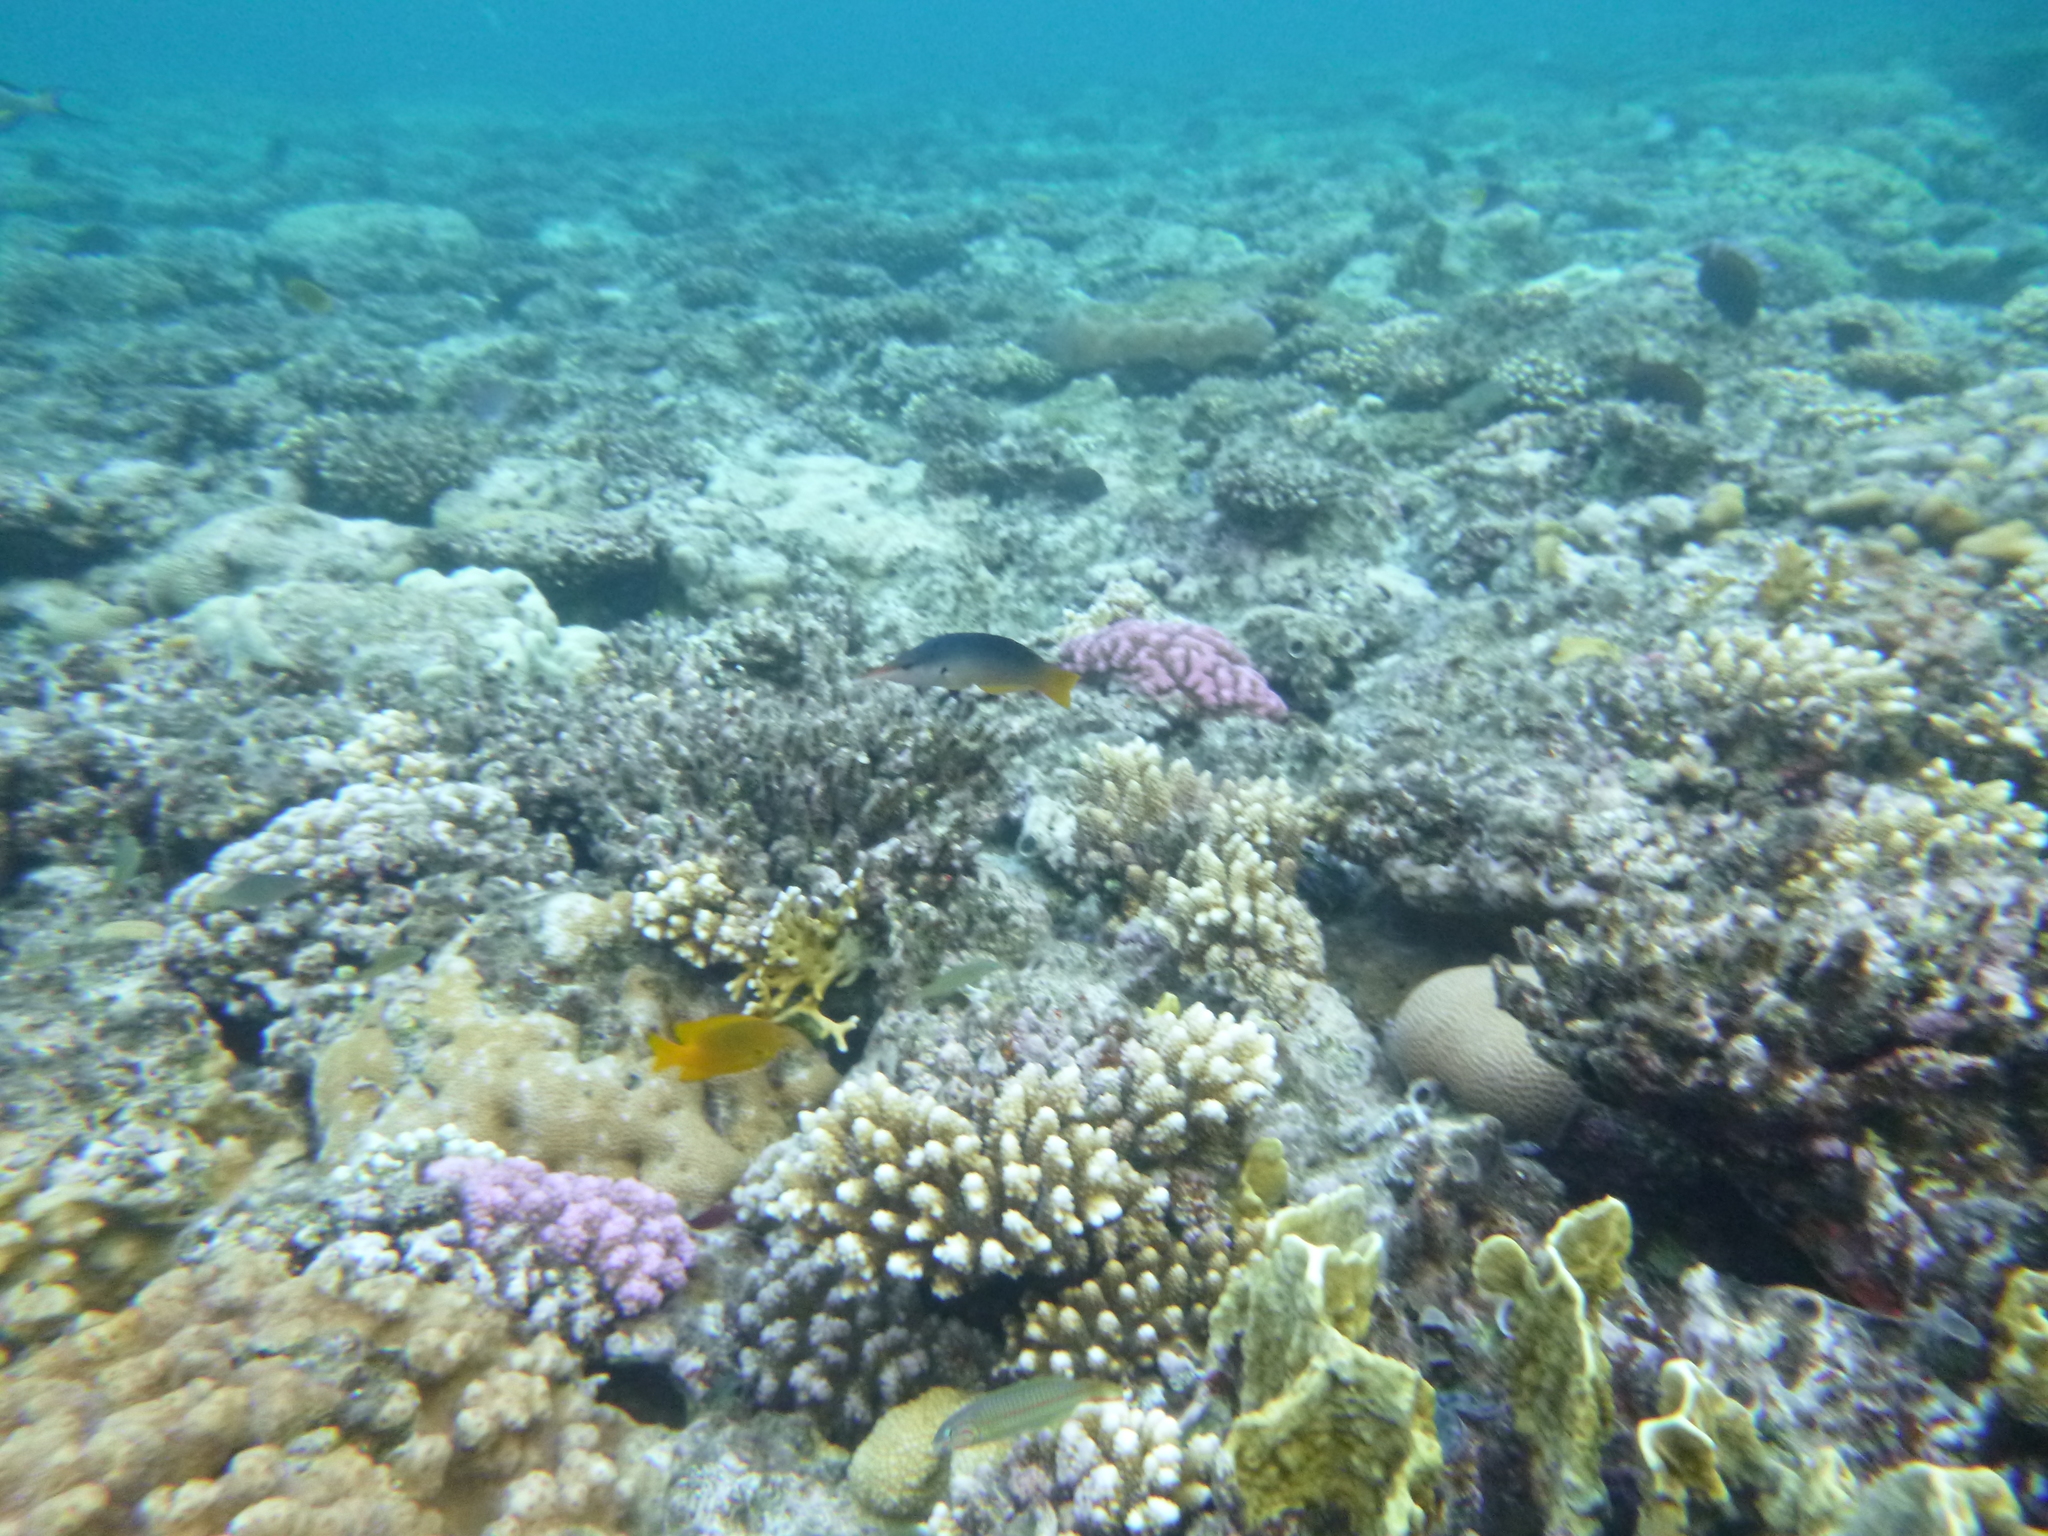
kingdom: Animalia
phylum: Chordata
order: Perciformes
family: Labridae
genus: Gomphosus
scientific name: Gomphosus klunzingeri
